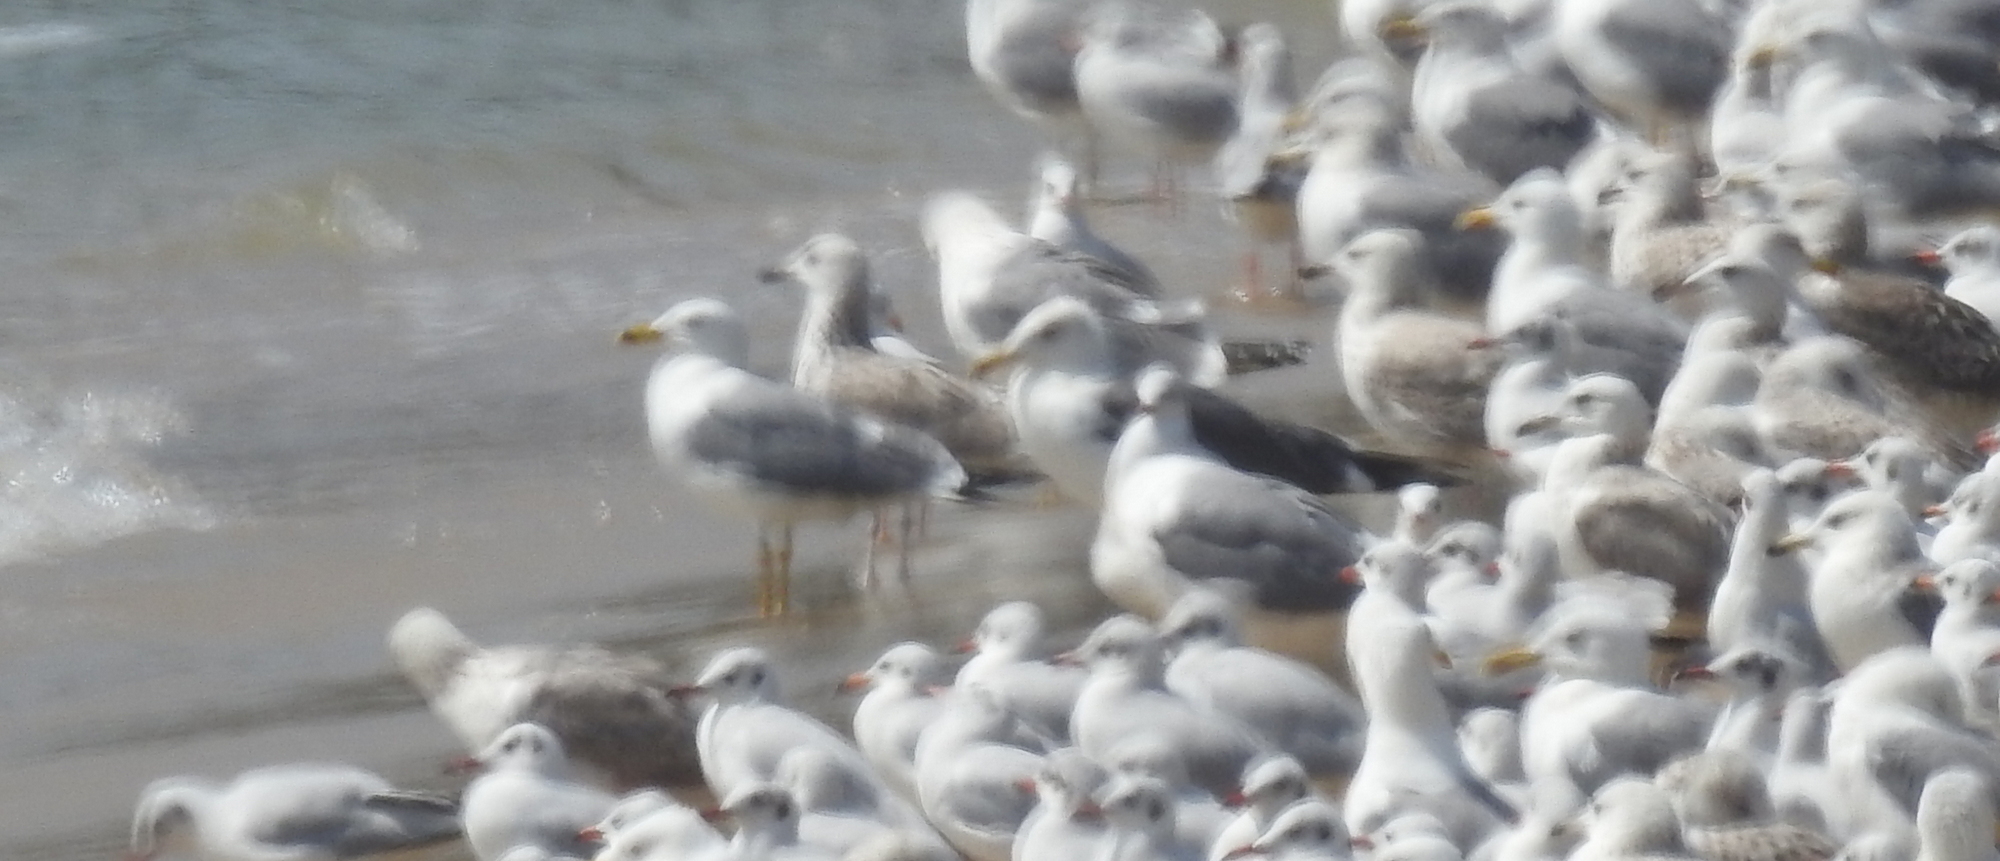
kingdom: Animalia
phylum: Chordata
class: Aves
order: Charadriiformes
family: Laridae
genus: Larus
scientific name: Larus fuscus
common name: Lesser black-backed gull
